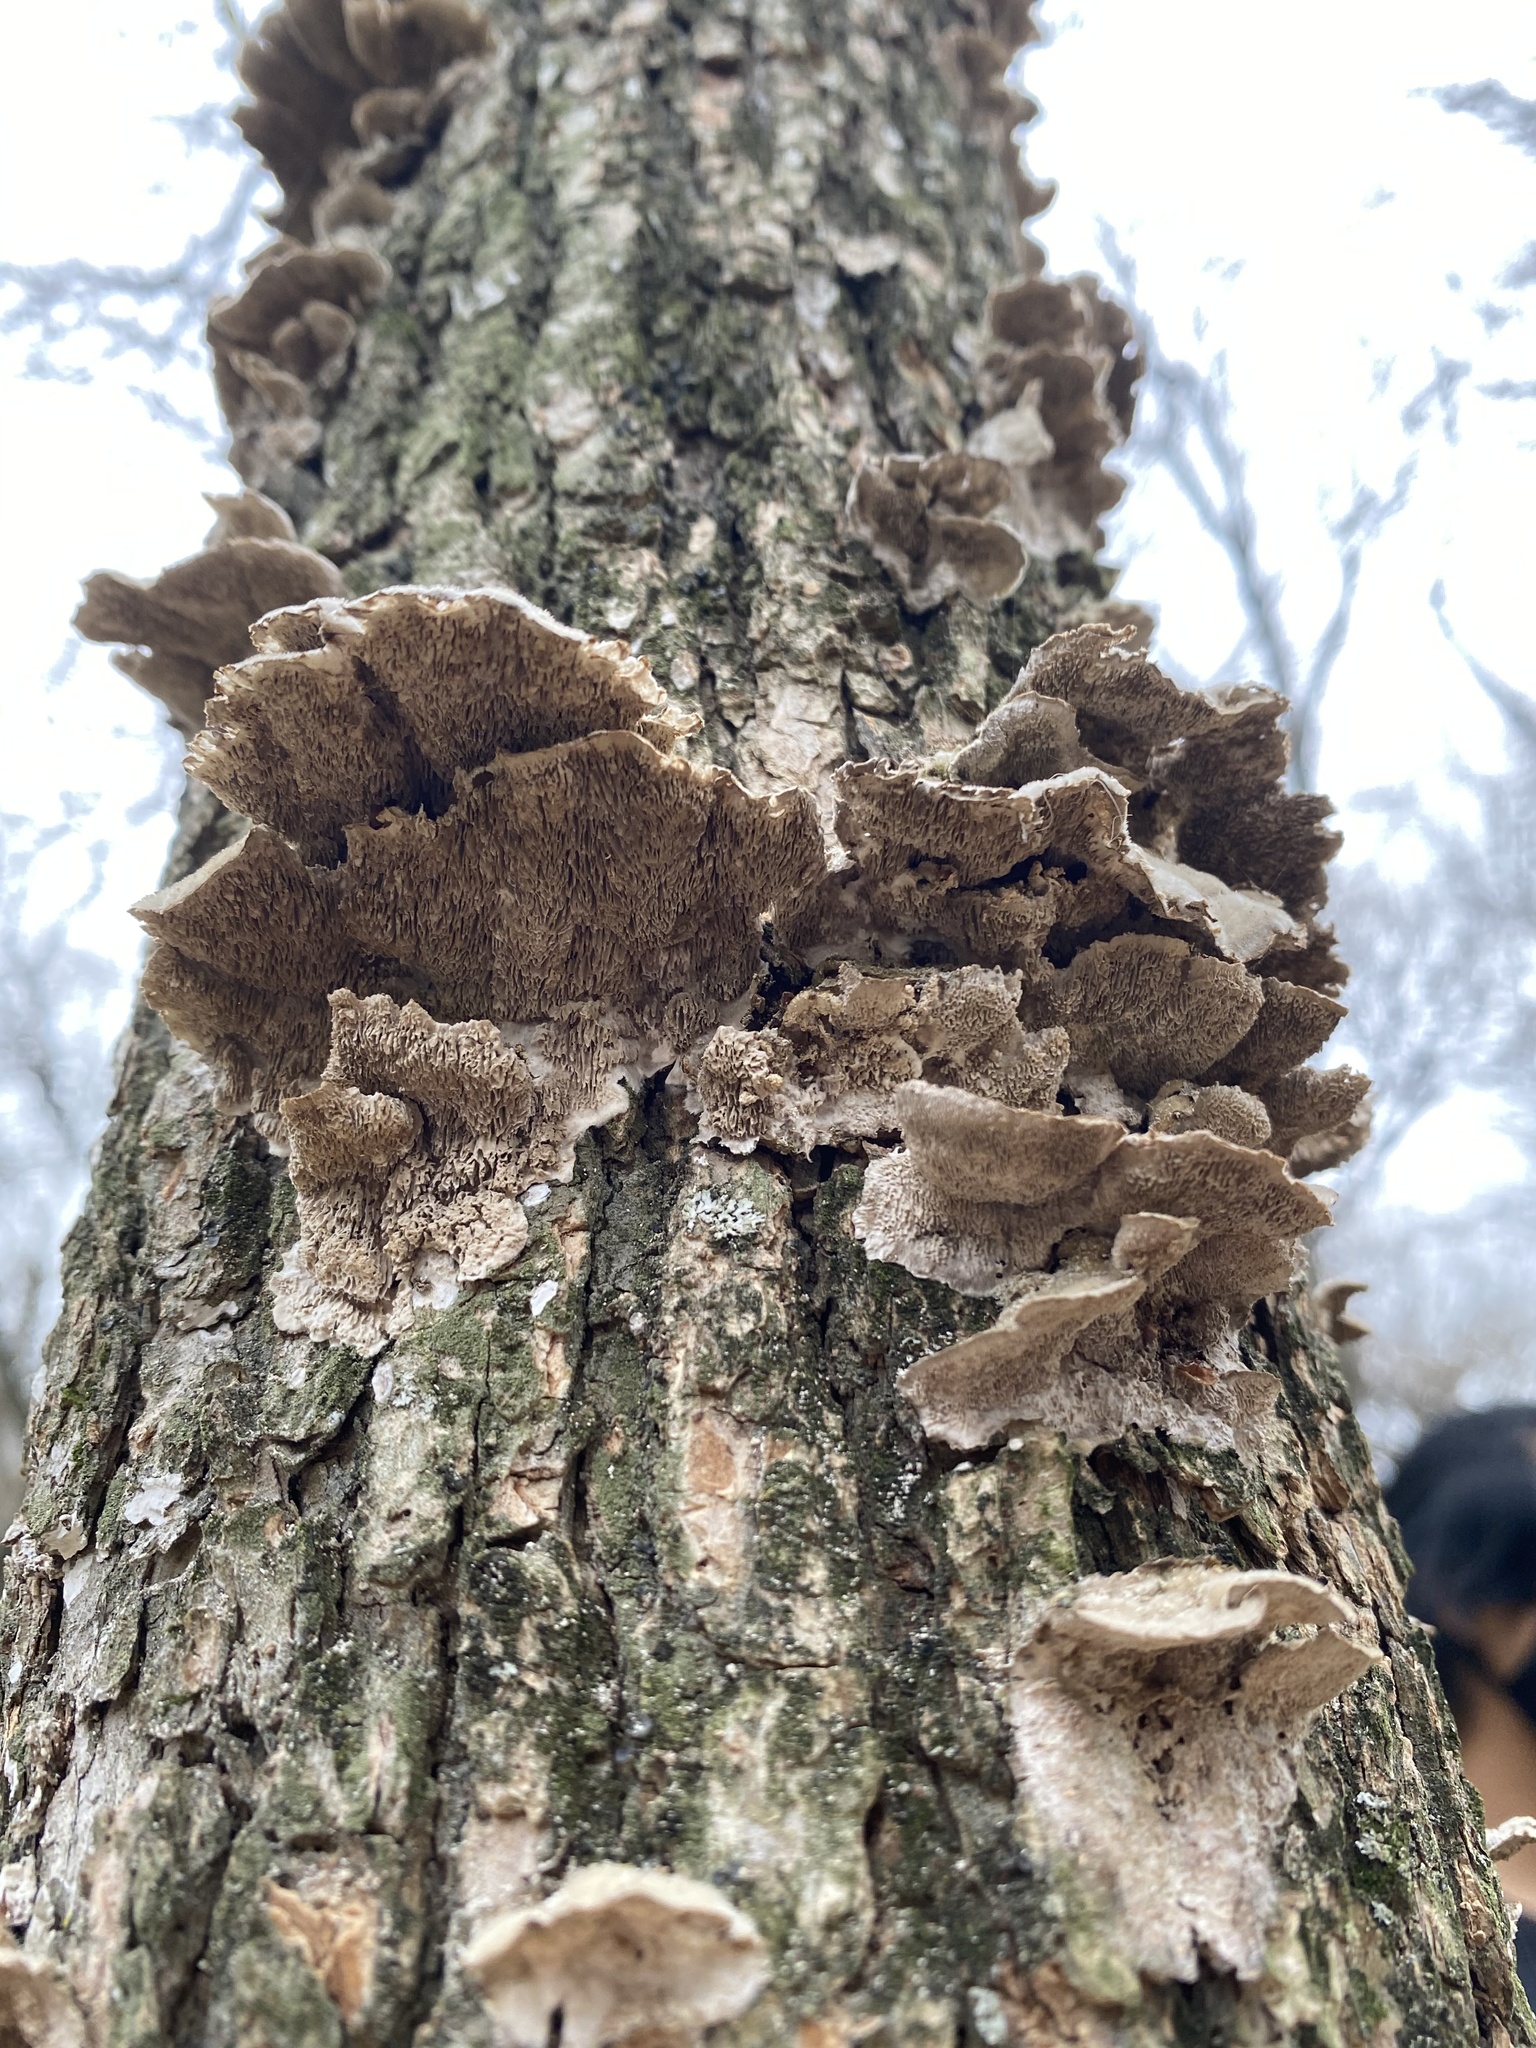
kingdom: Fungi
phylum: Basidiomycota
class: Agaricomycetes
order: Polyporales
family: Cerrenaceae
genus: Cerrena
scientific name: Cerrena unicolor
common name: Mossy maze polypore
